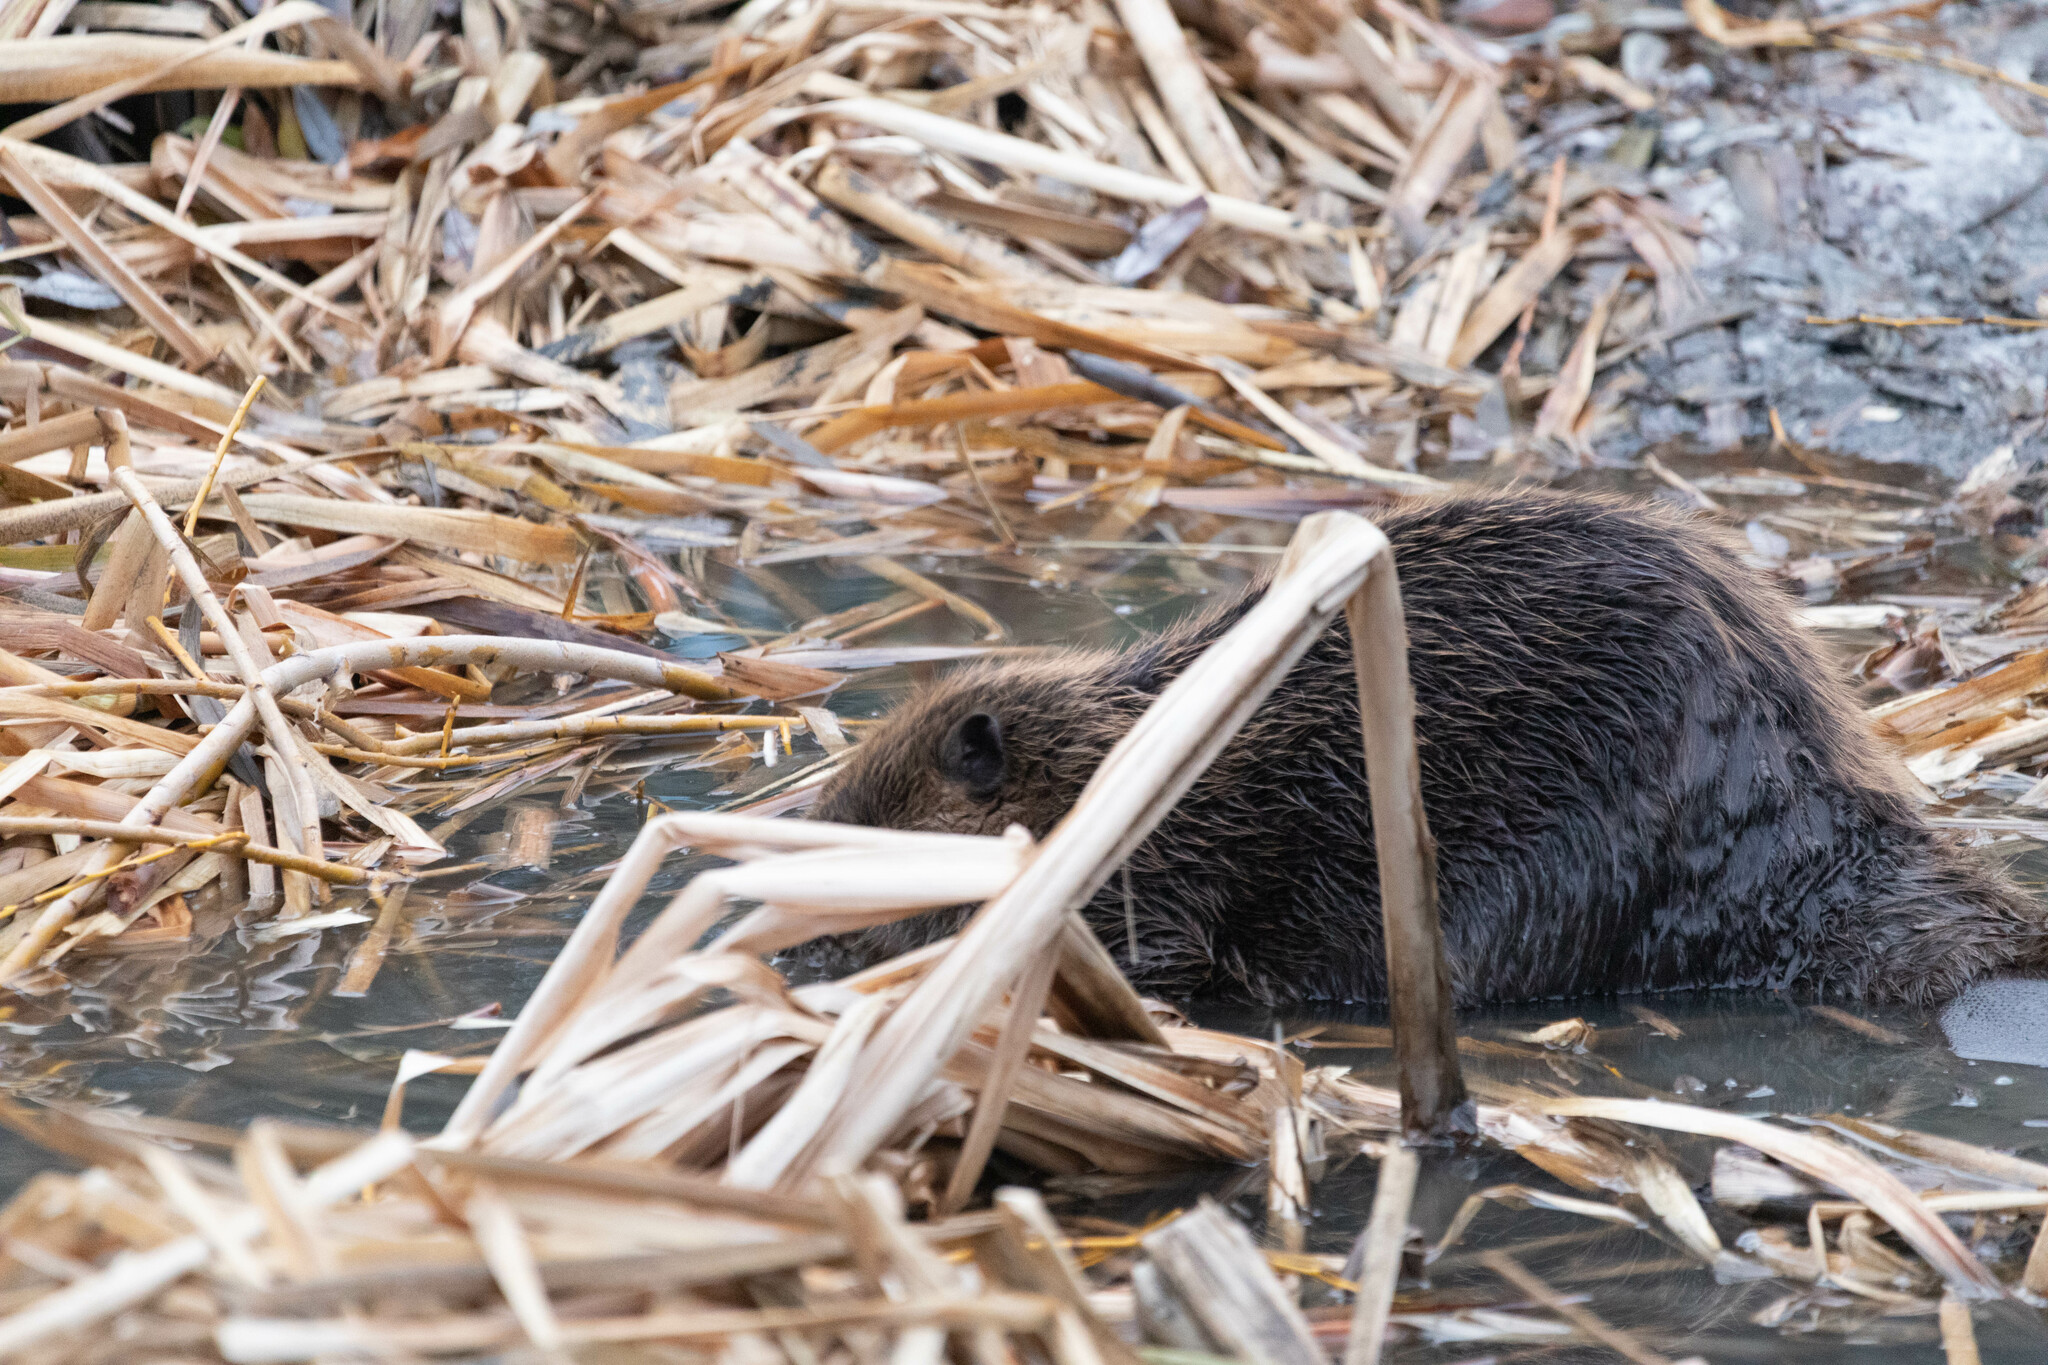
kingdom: Animalia
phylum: Chordata
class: Mammalia
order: Rodentia
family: Castoridae
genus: Castor
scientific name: Castor canadensis
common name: American beaver
